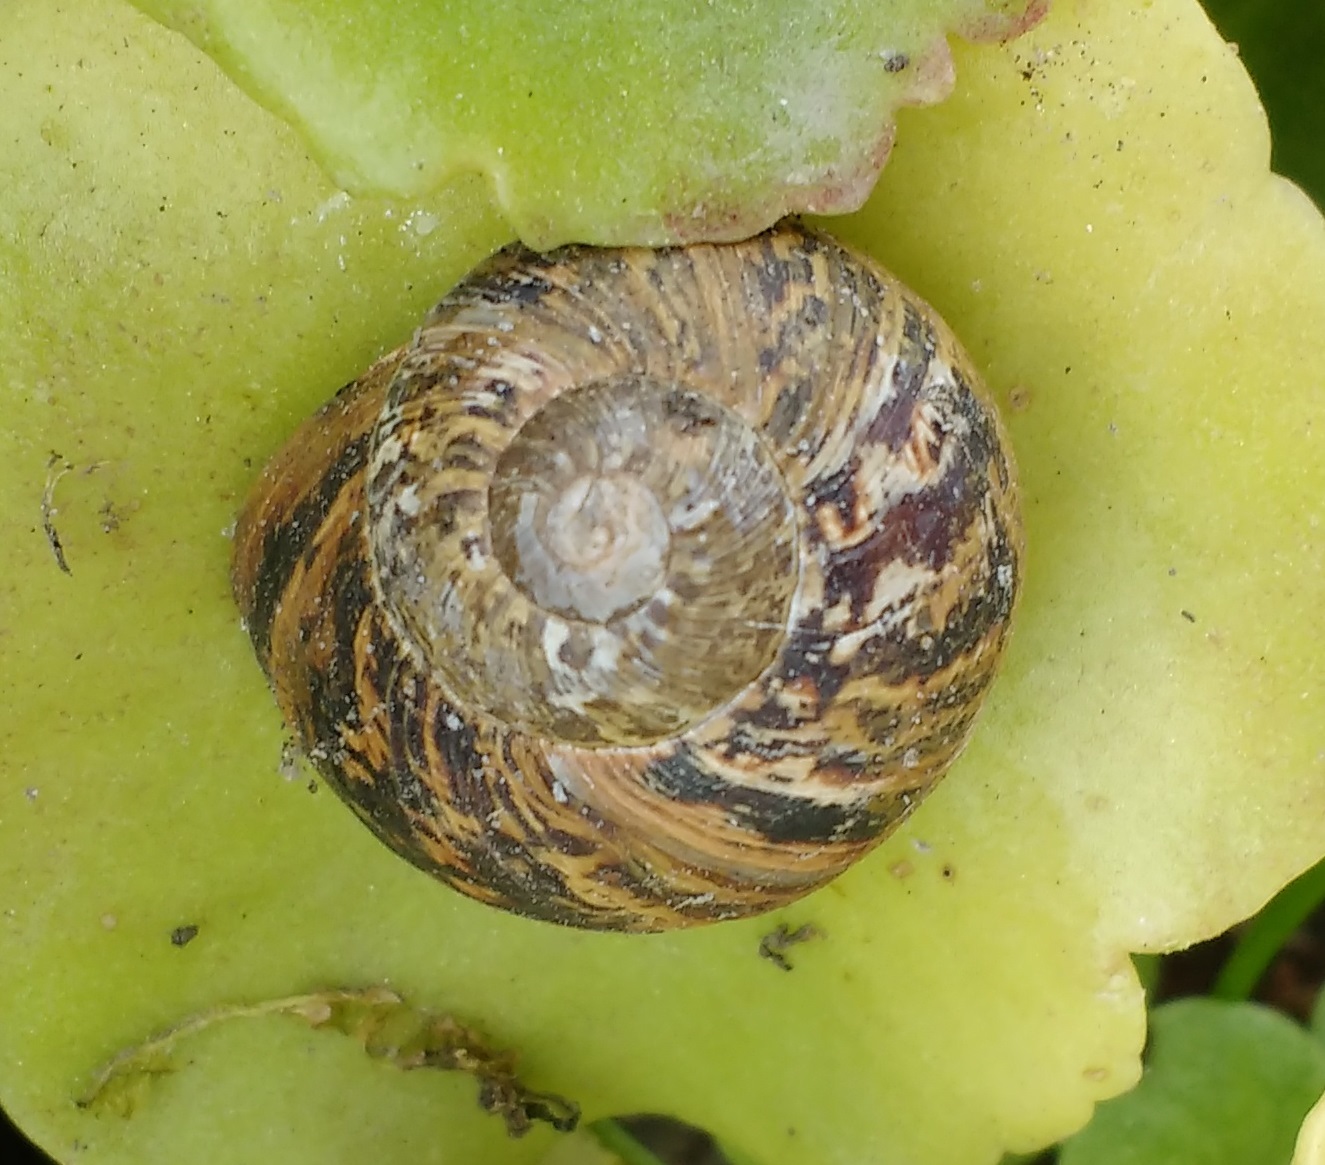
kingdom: Animalia
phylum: Mollusca
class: Gastropoda
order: Stylommatophora
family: Helicidae
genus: Cornu
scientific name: Cornu aspersum
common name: Brown garden snail
